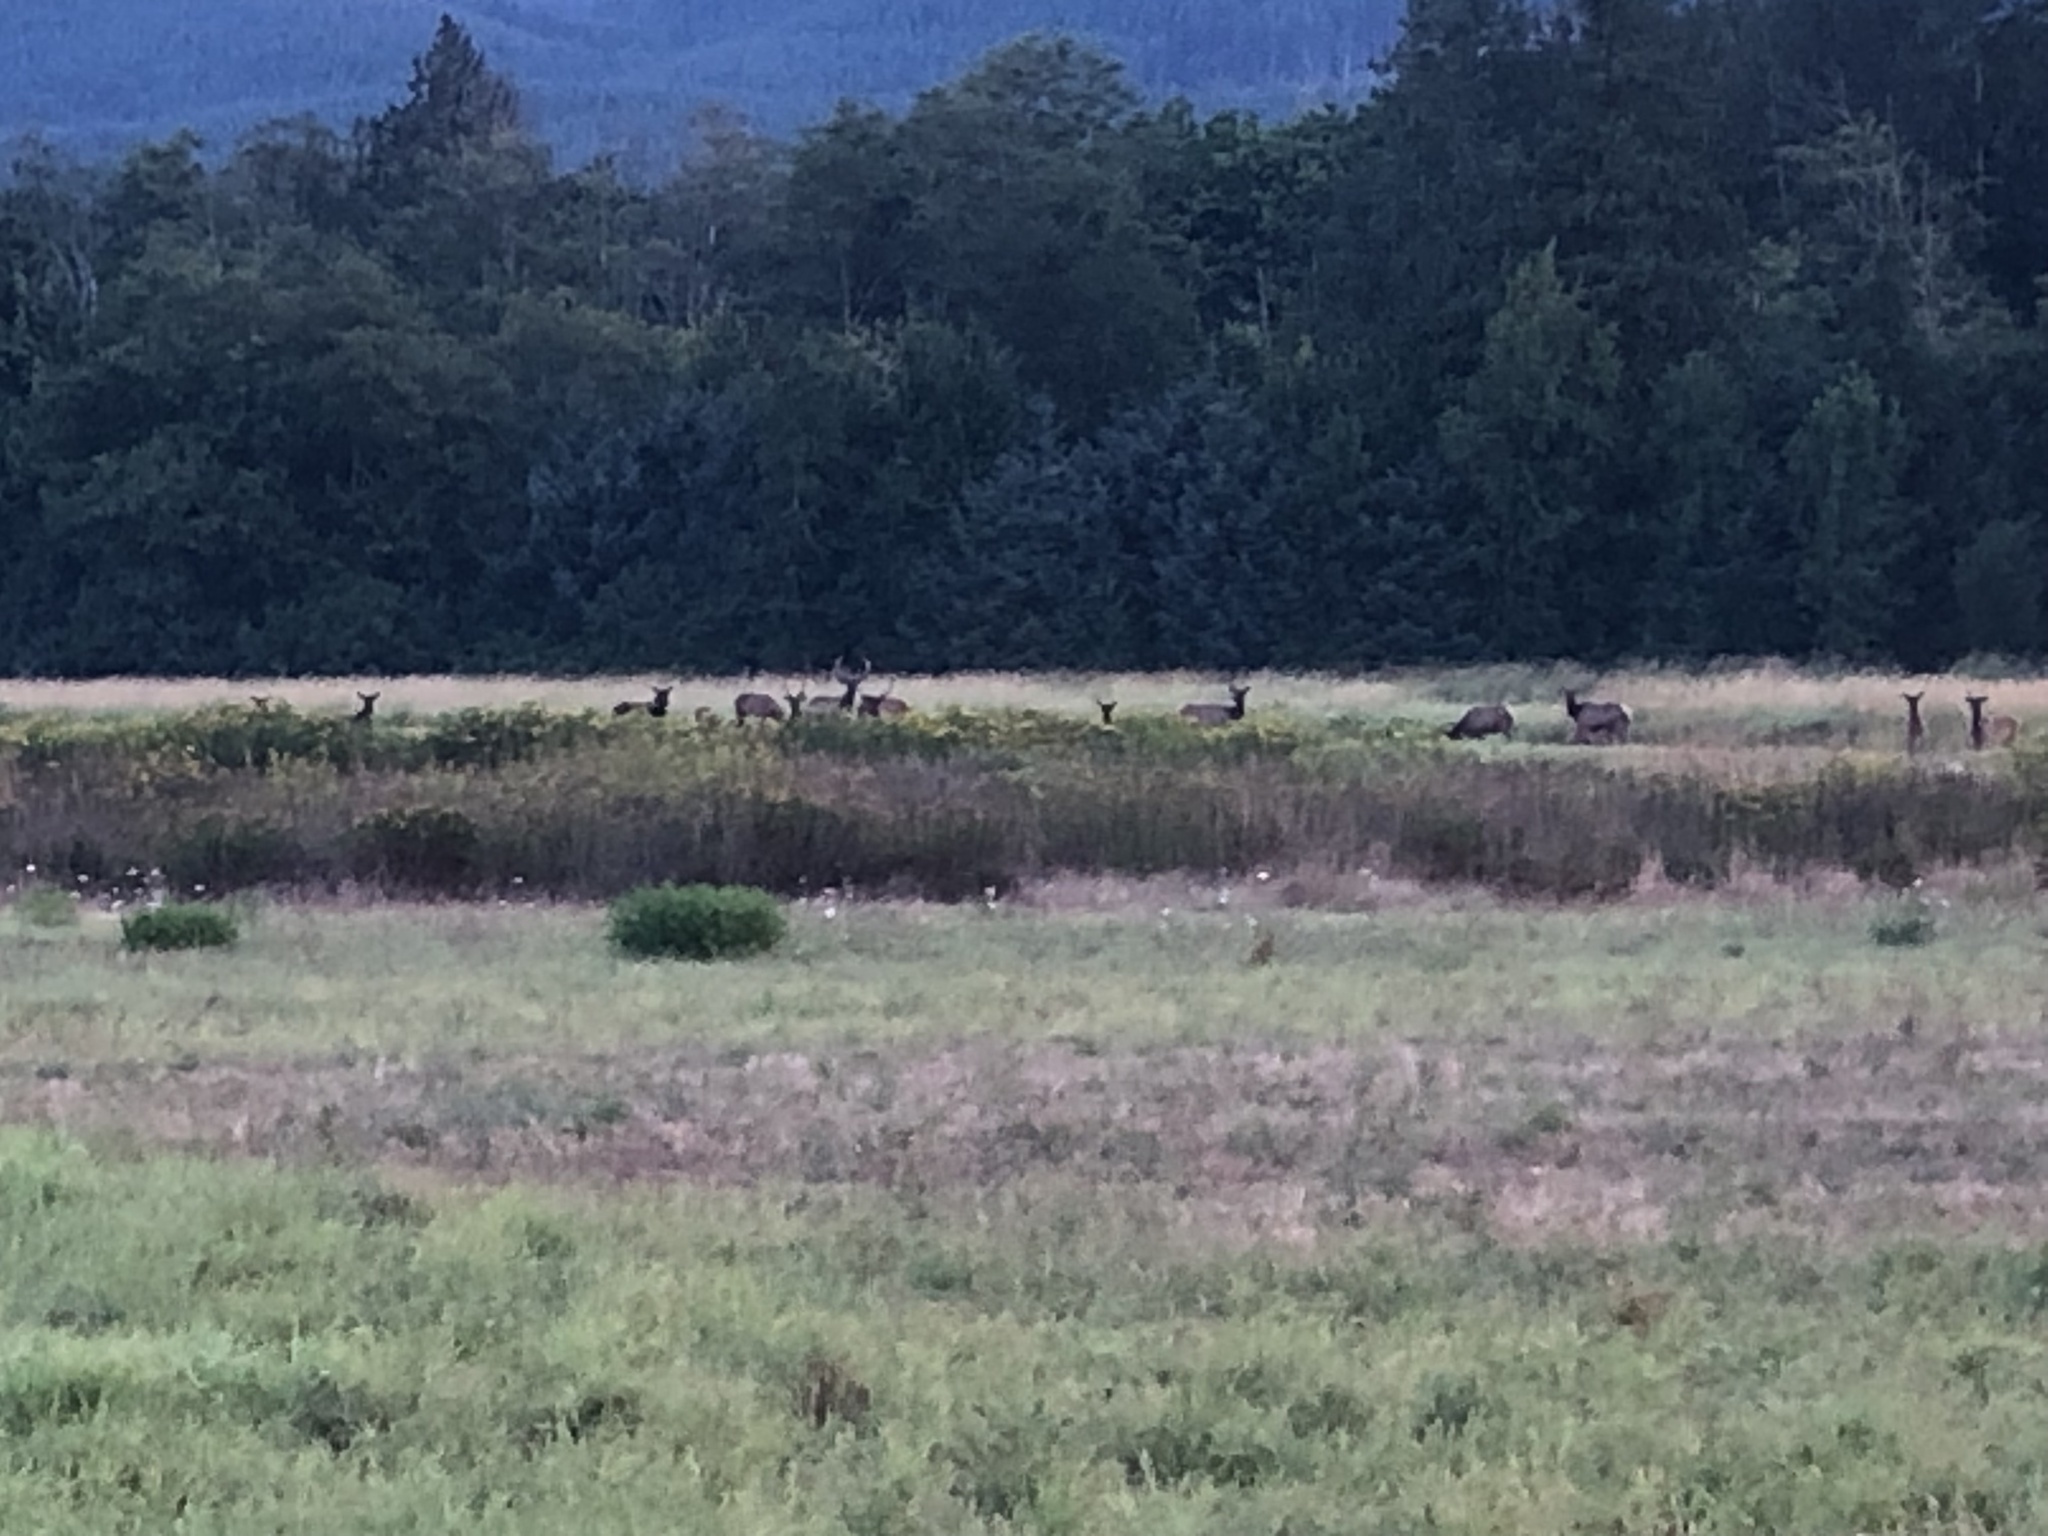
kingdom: Animalia
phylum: Chordata
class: Mammalia
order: Artiodactyla
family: Cervidae
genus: Cervus
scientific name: Cervus elaphus
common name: Red deer
